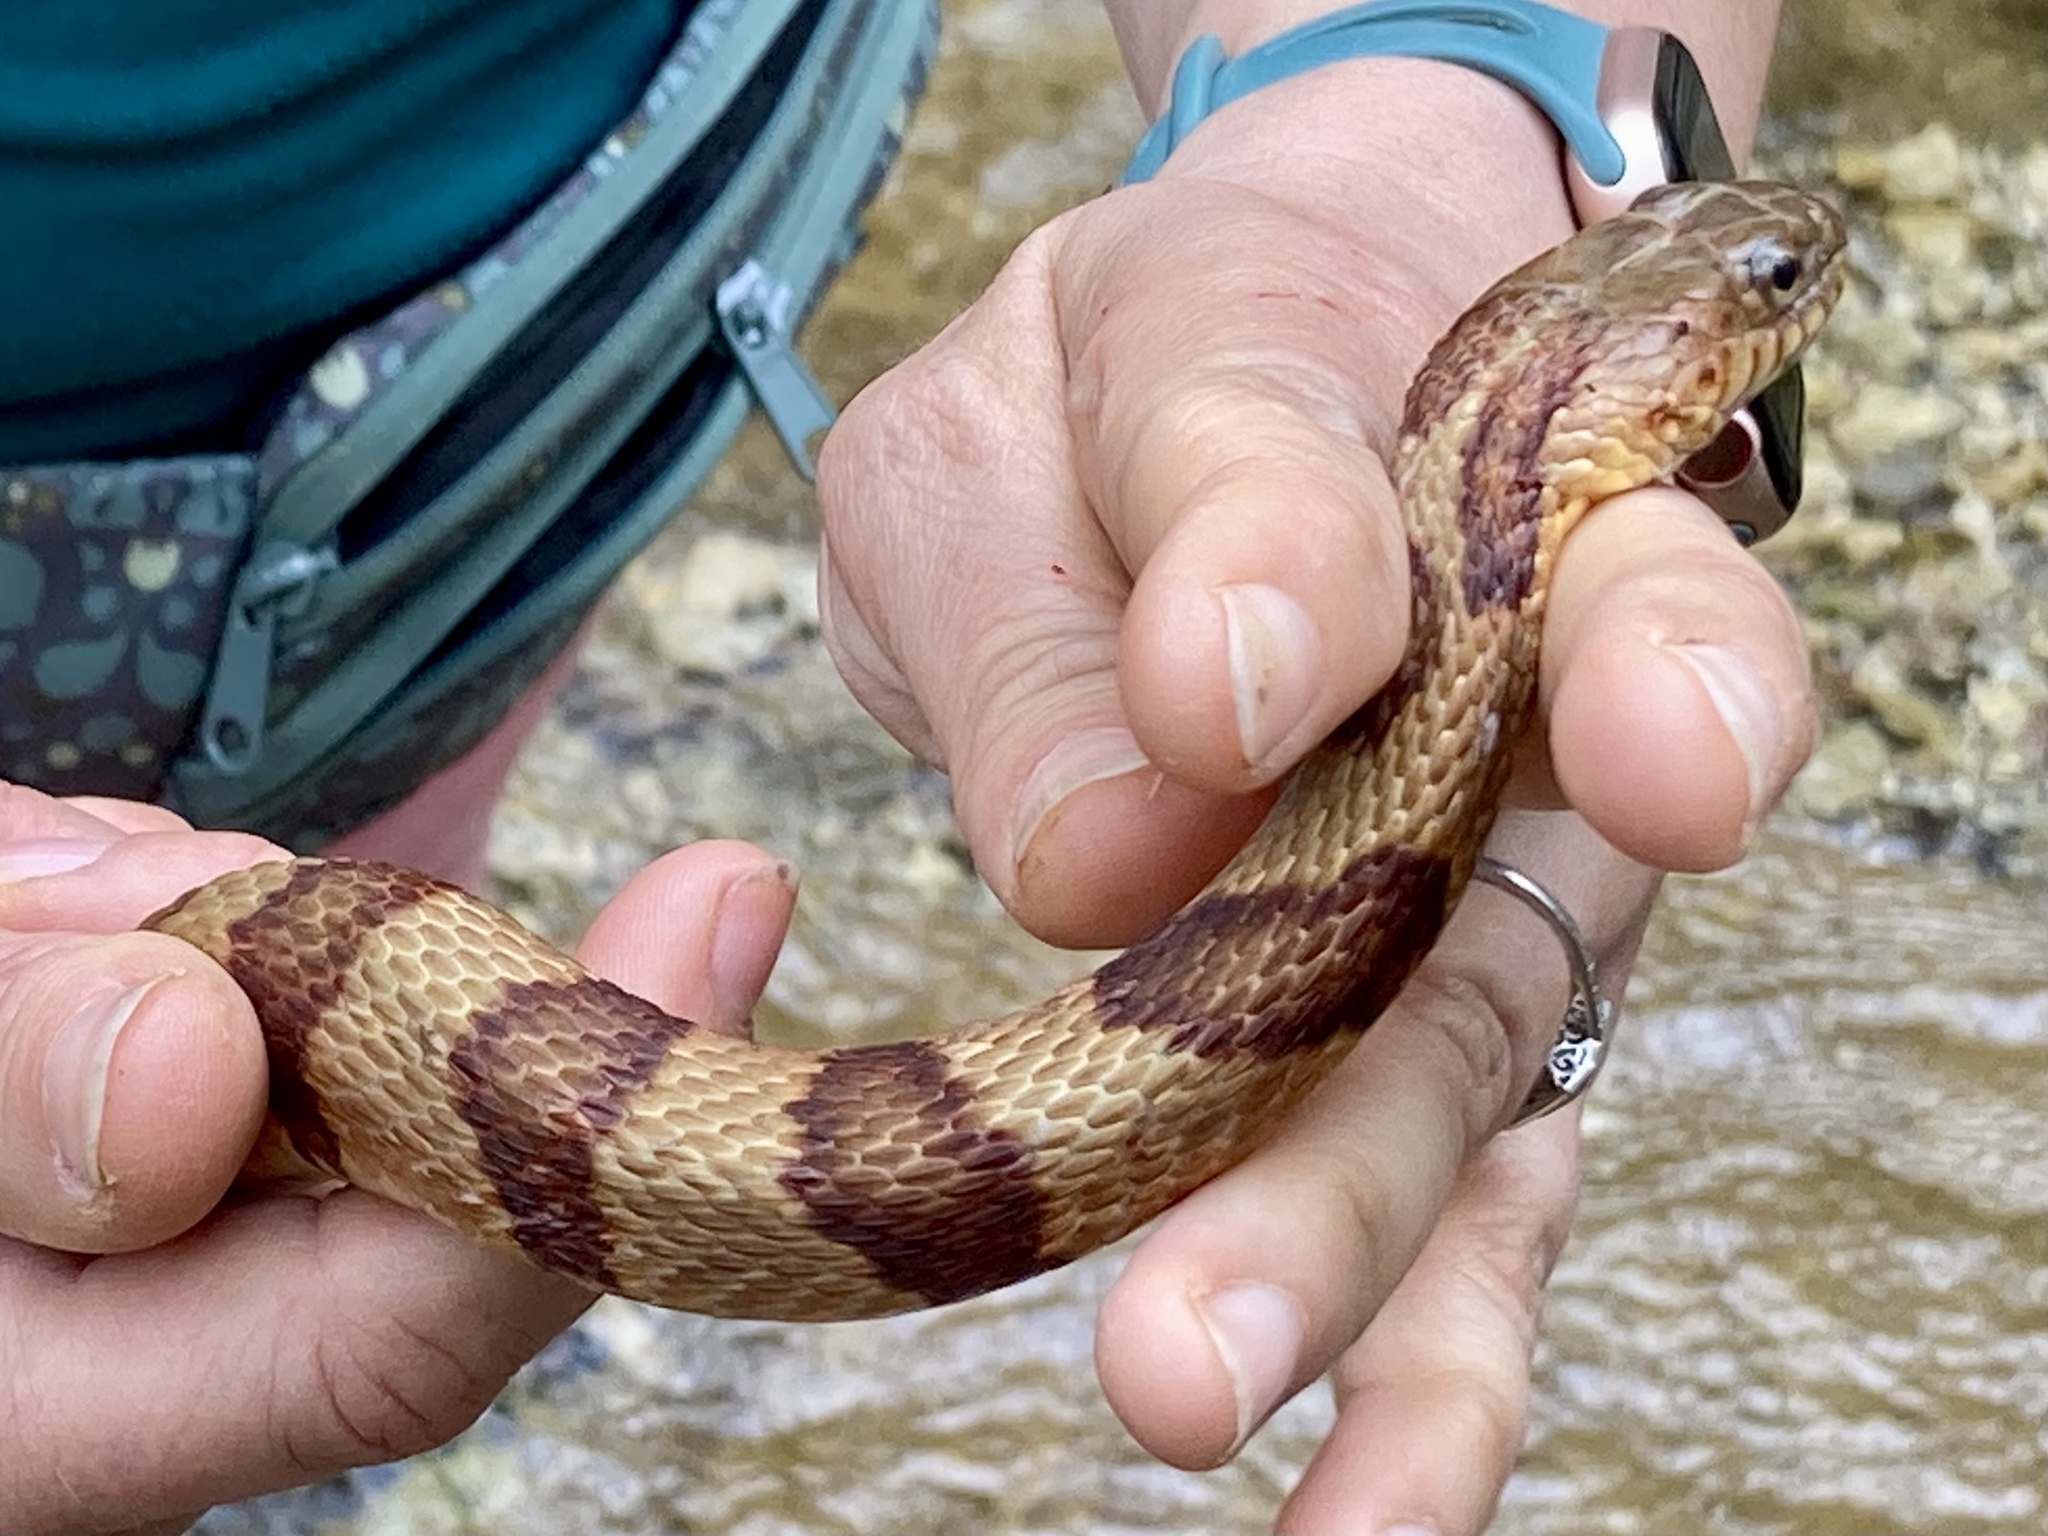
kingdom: Animalia
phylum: Chordata
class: Squamata
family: Colubridae
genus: Nerodia
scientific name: Nerodia sipedon
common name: Northern water snake
